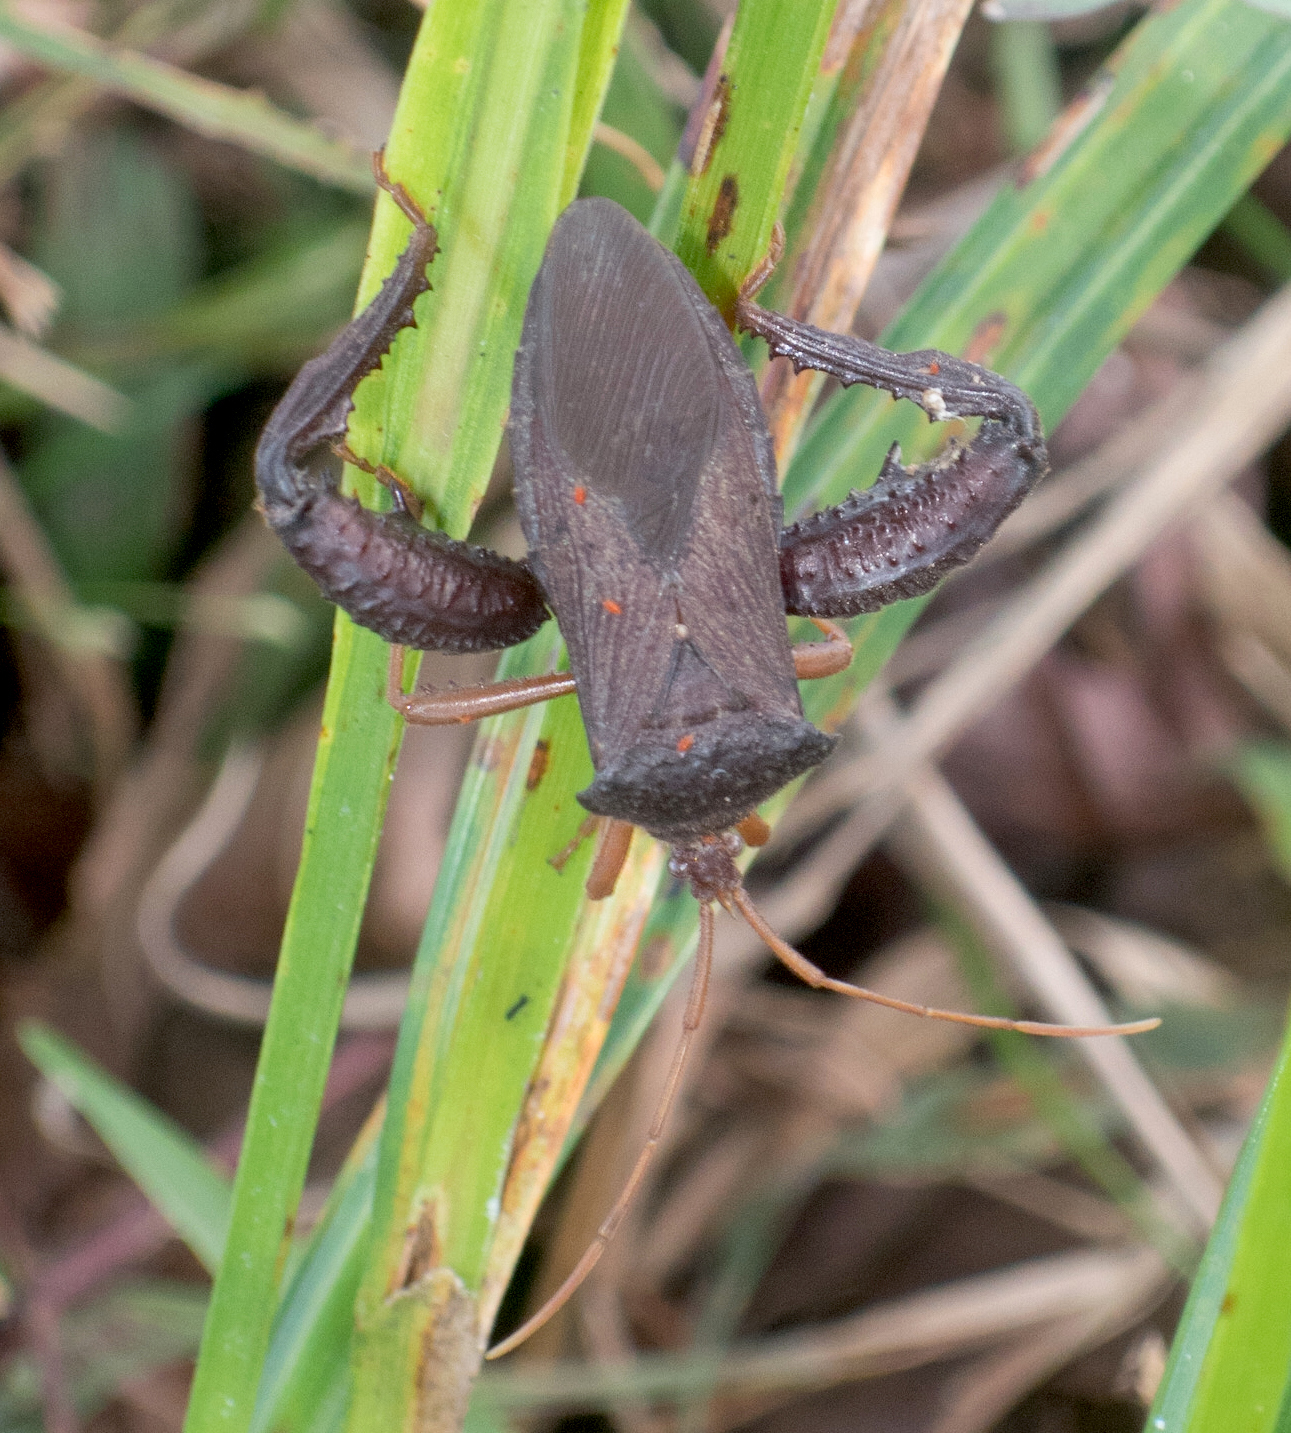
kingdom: Animalia
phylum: Arthropoda
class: Insecta
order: Hemiptera
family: Coreidae
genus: Acanthocephala
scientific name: Acanthocephala bicoloripes
